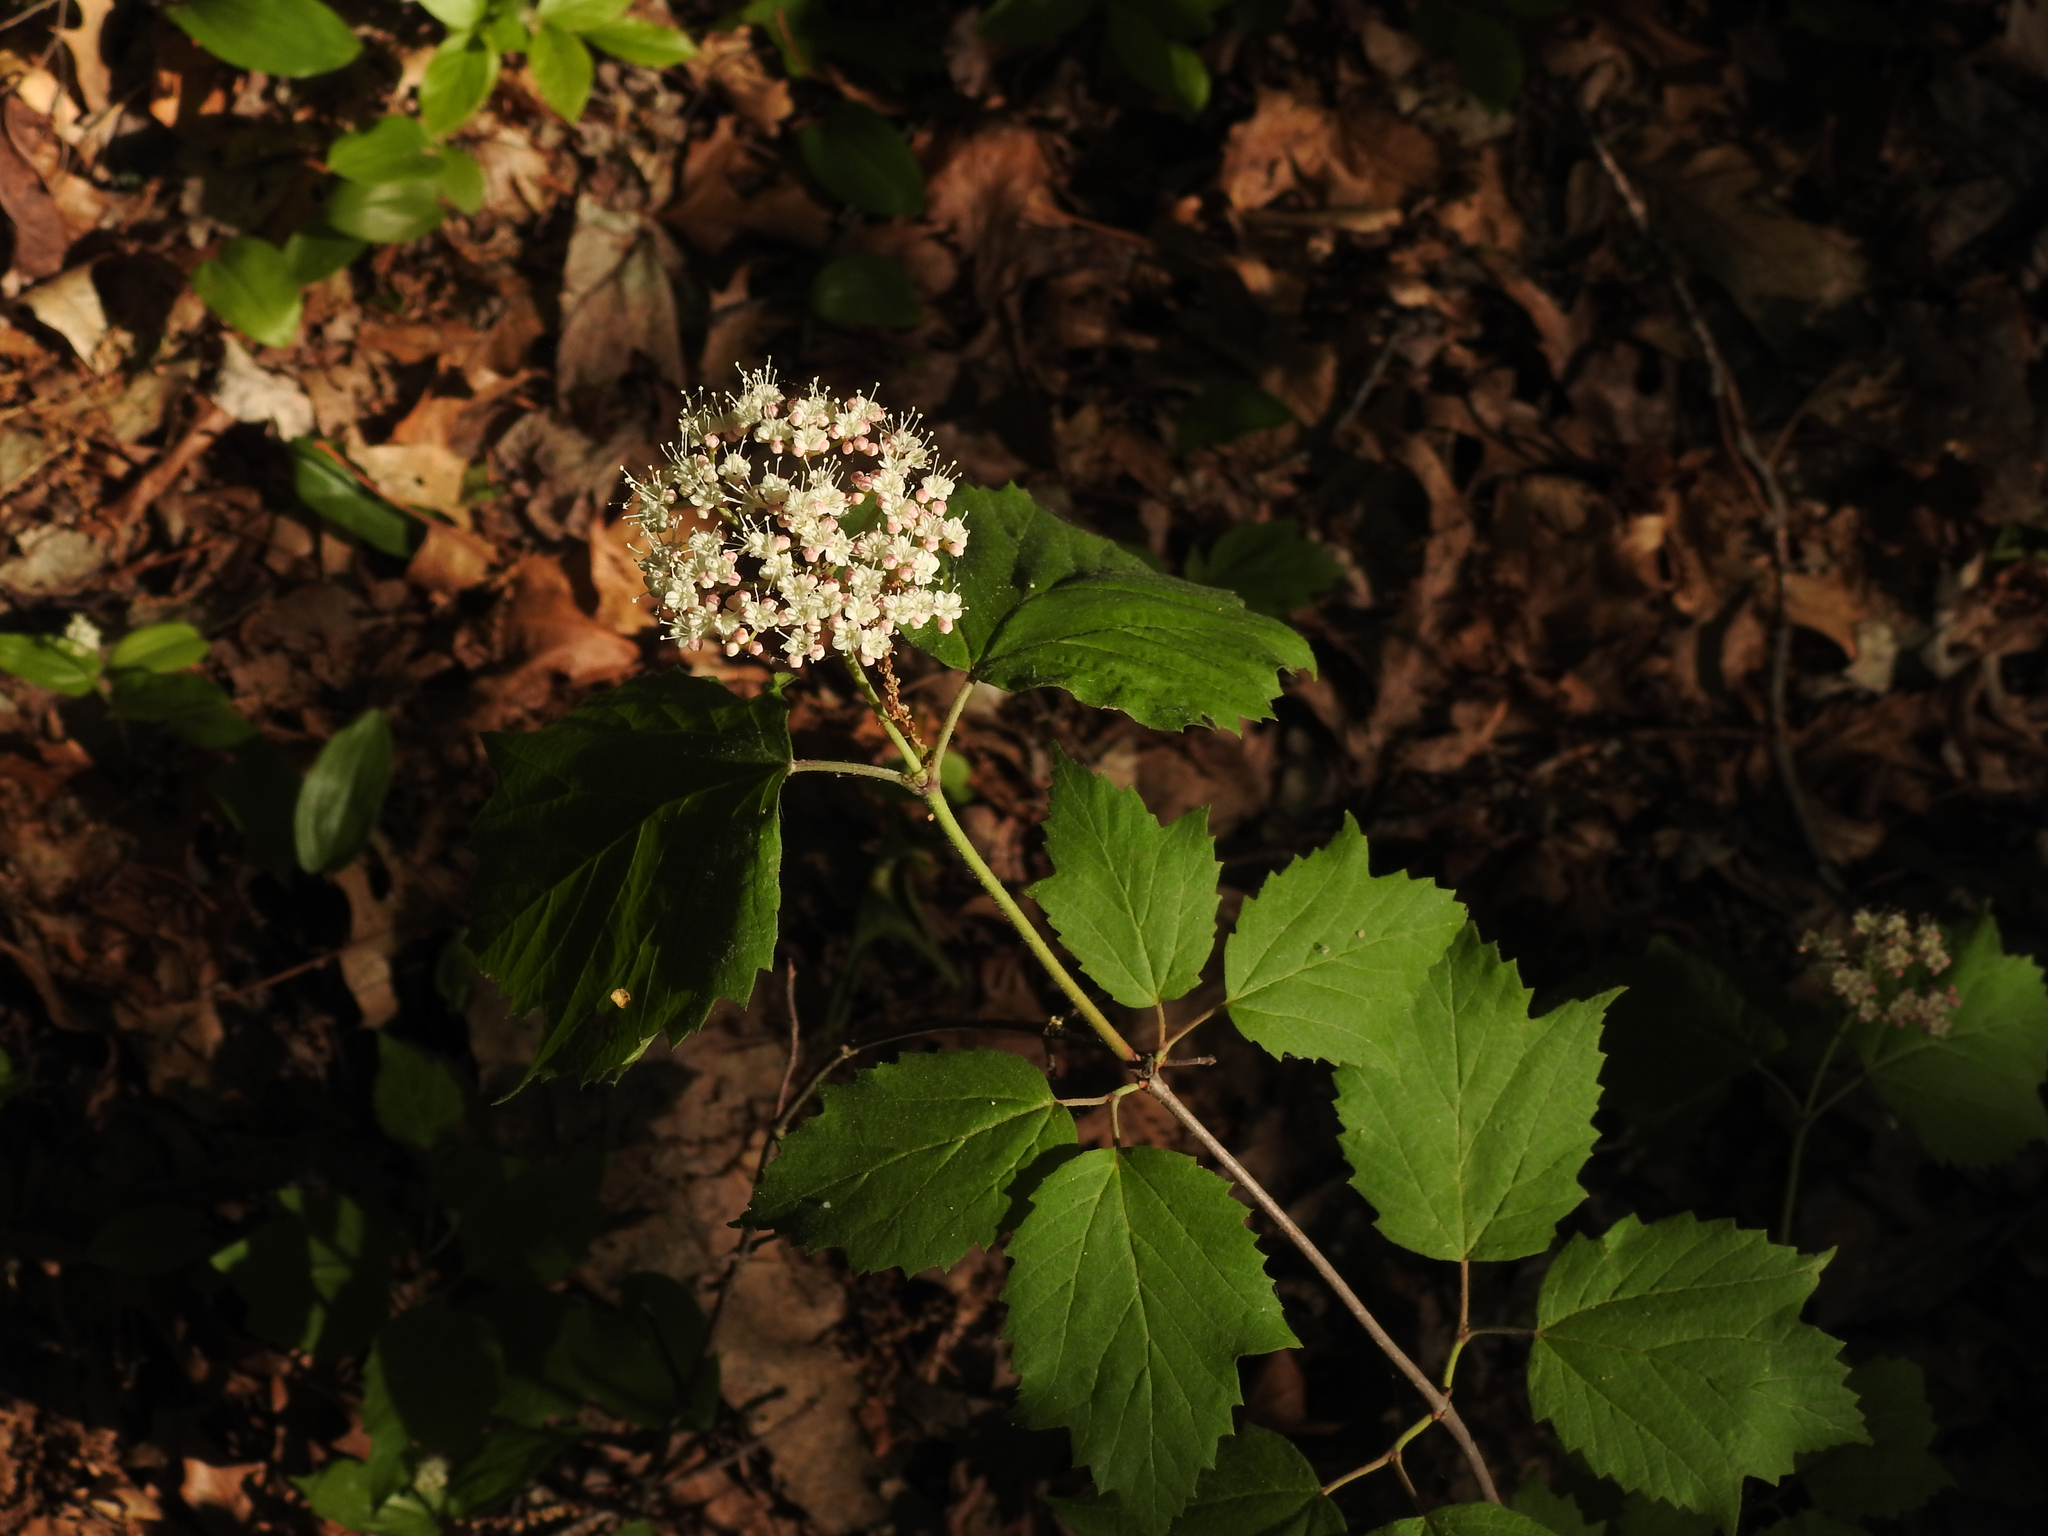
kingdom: Plantae
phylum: Tracheophyta
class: Magnoliopsida
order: Dipsacales
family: Viburnaceae
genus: Viburnum
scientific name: Viburnum acerifolium
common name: Dockmackie
